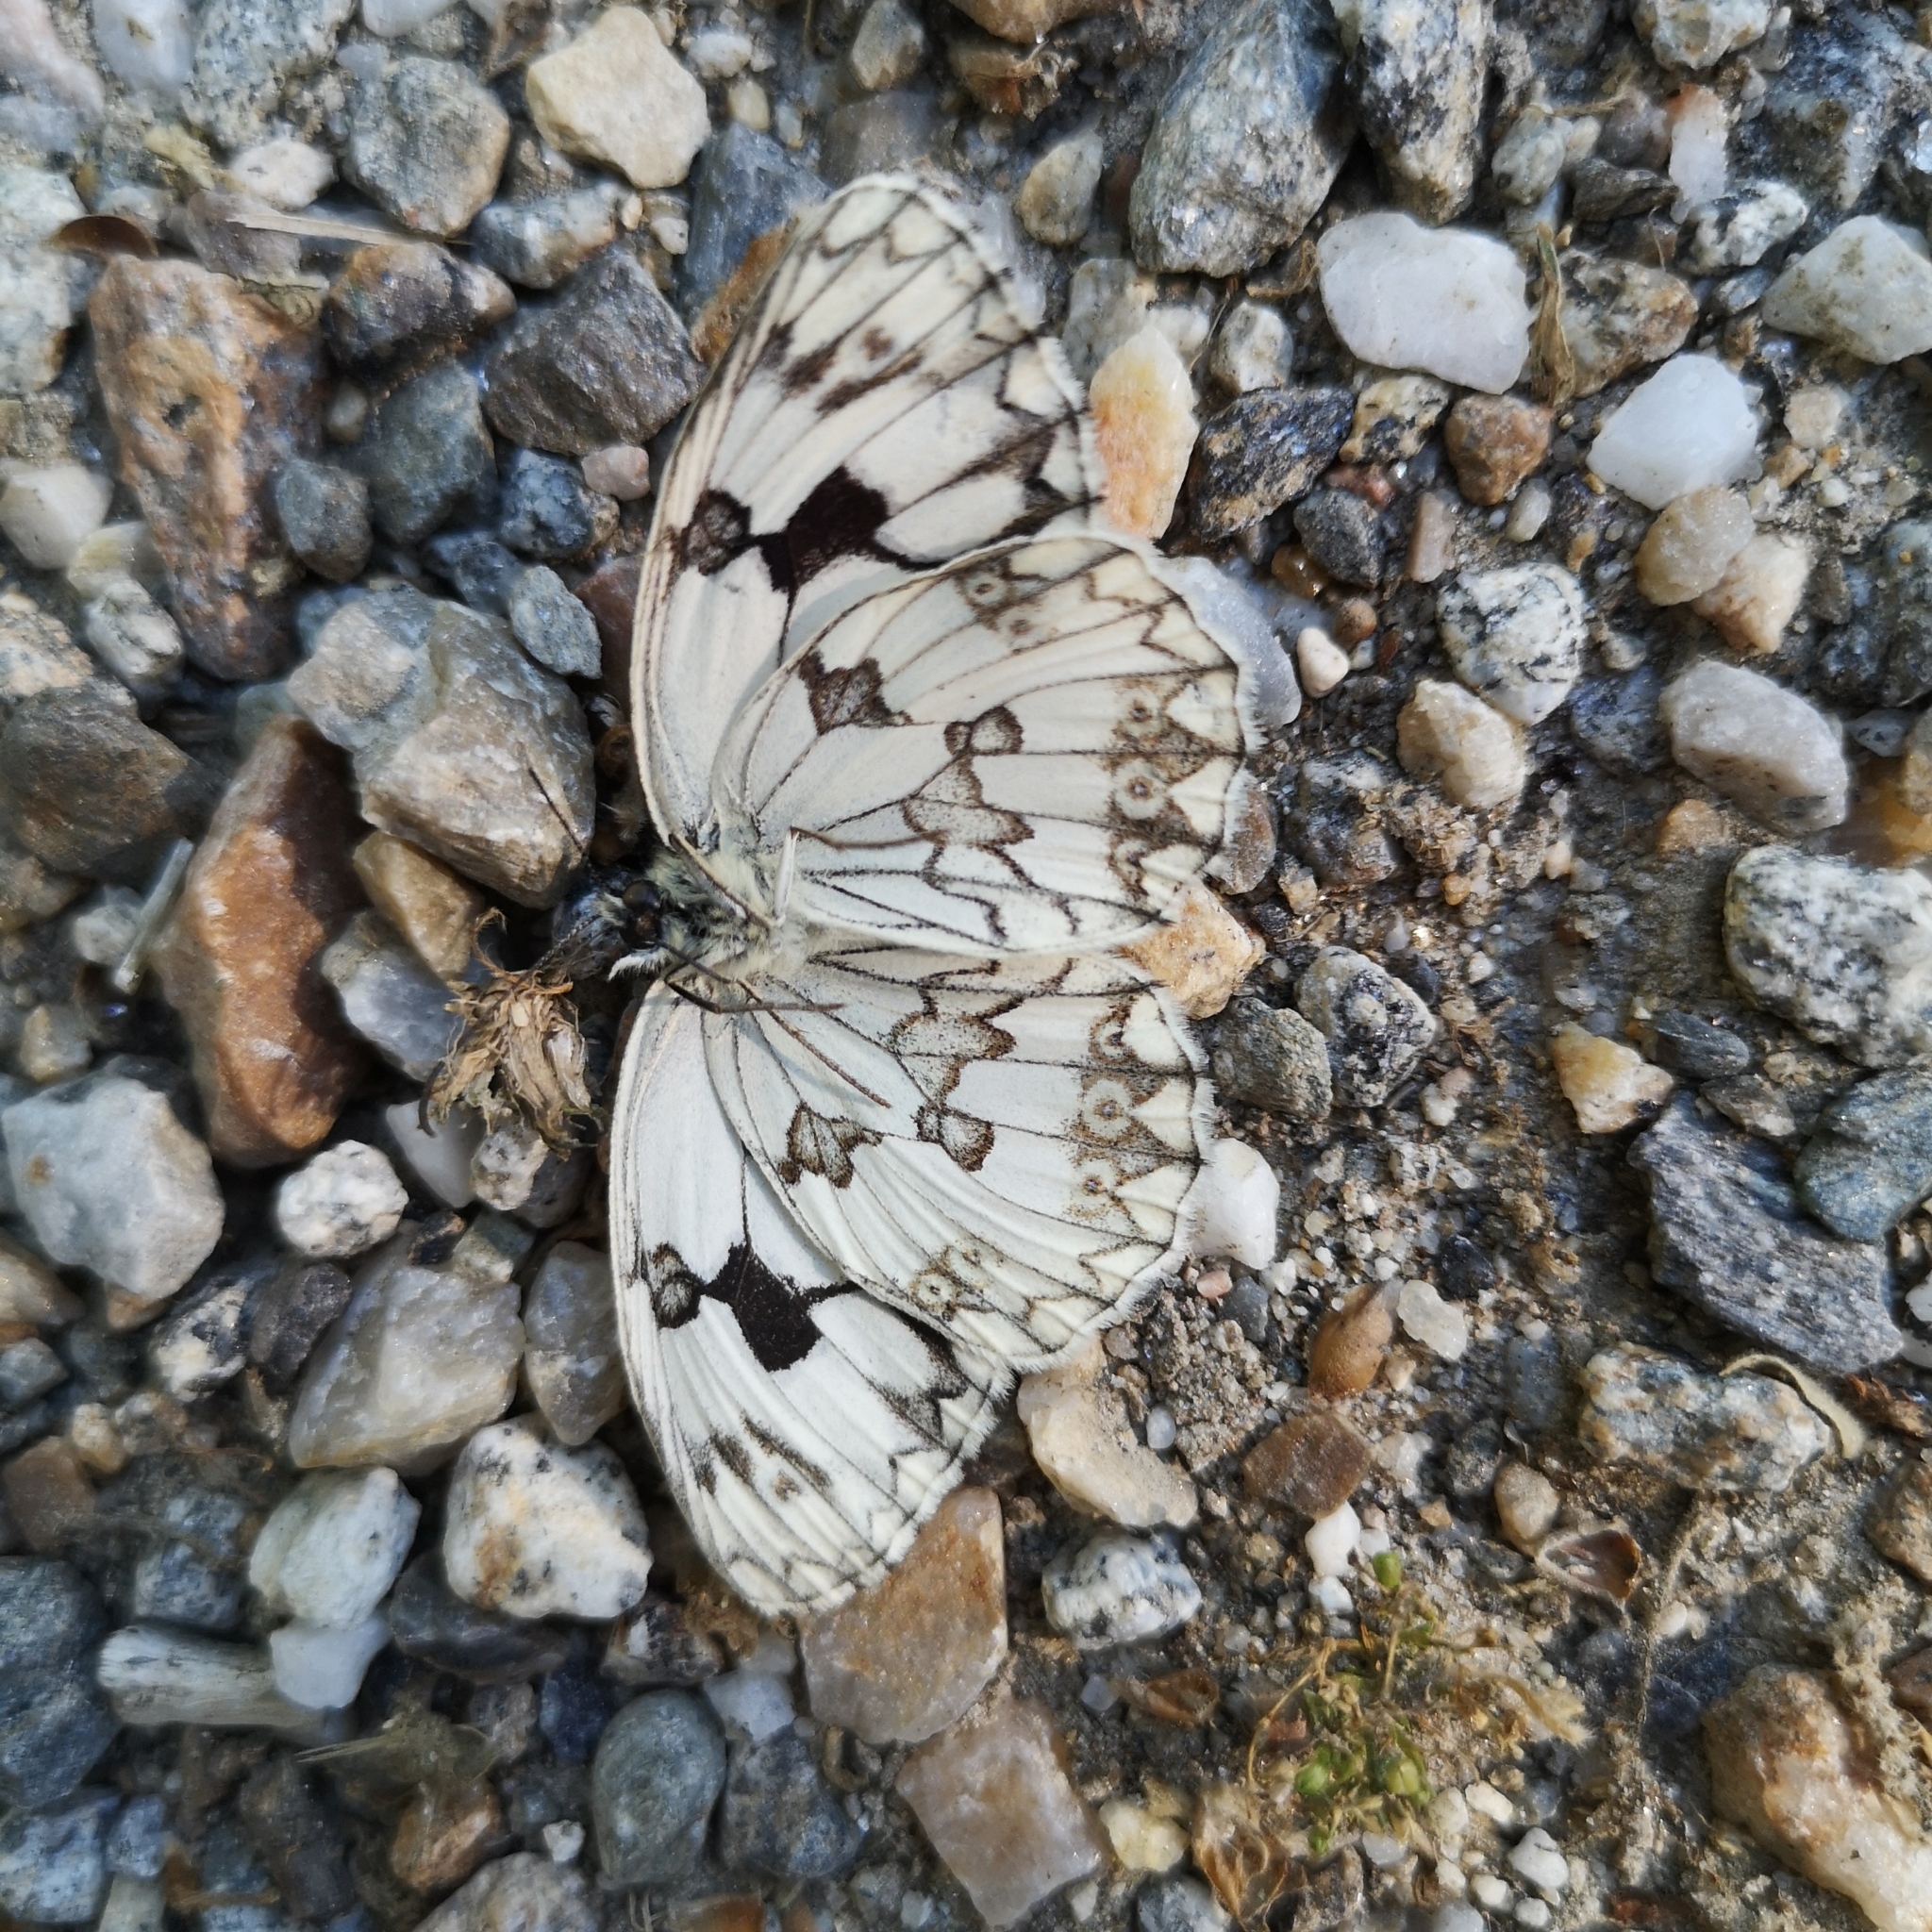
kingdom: Animalia
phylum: Arthropoda
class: Insecta
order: Lepidoptera
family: Nymphalidae
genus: Melanargia
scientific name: Melanargia lachesis
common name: Iberian marbled white
